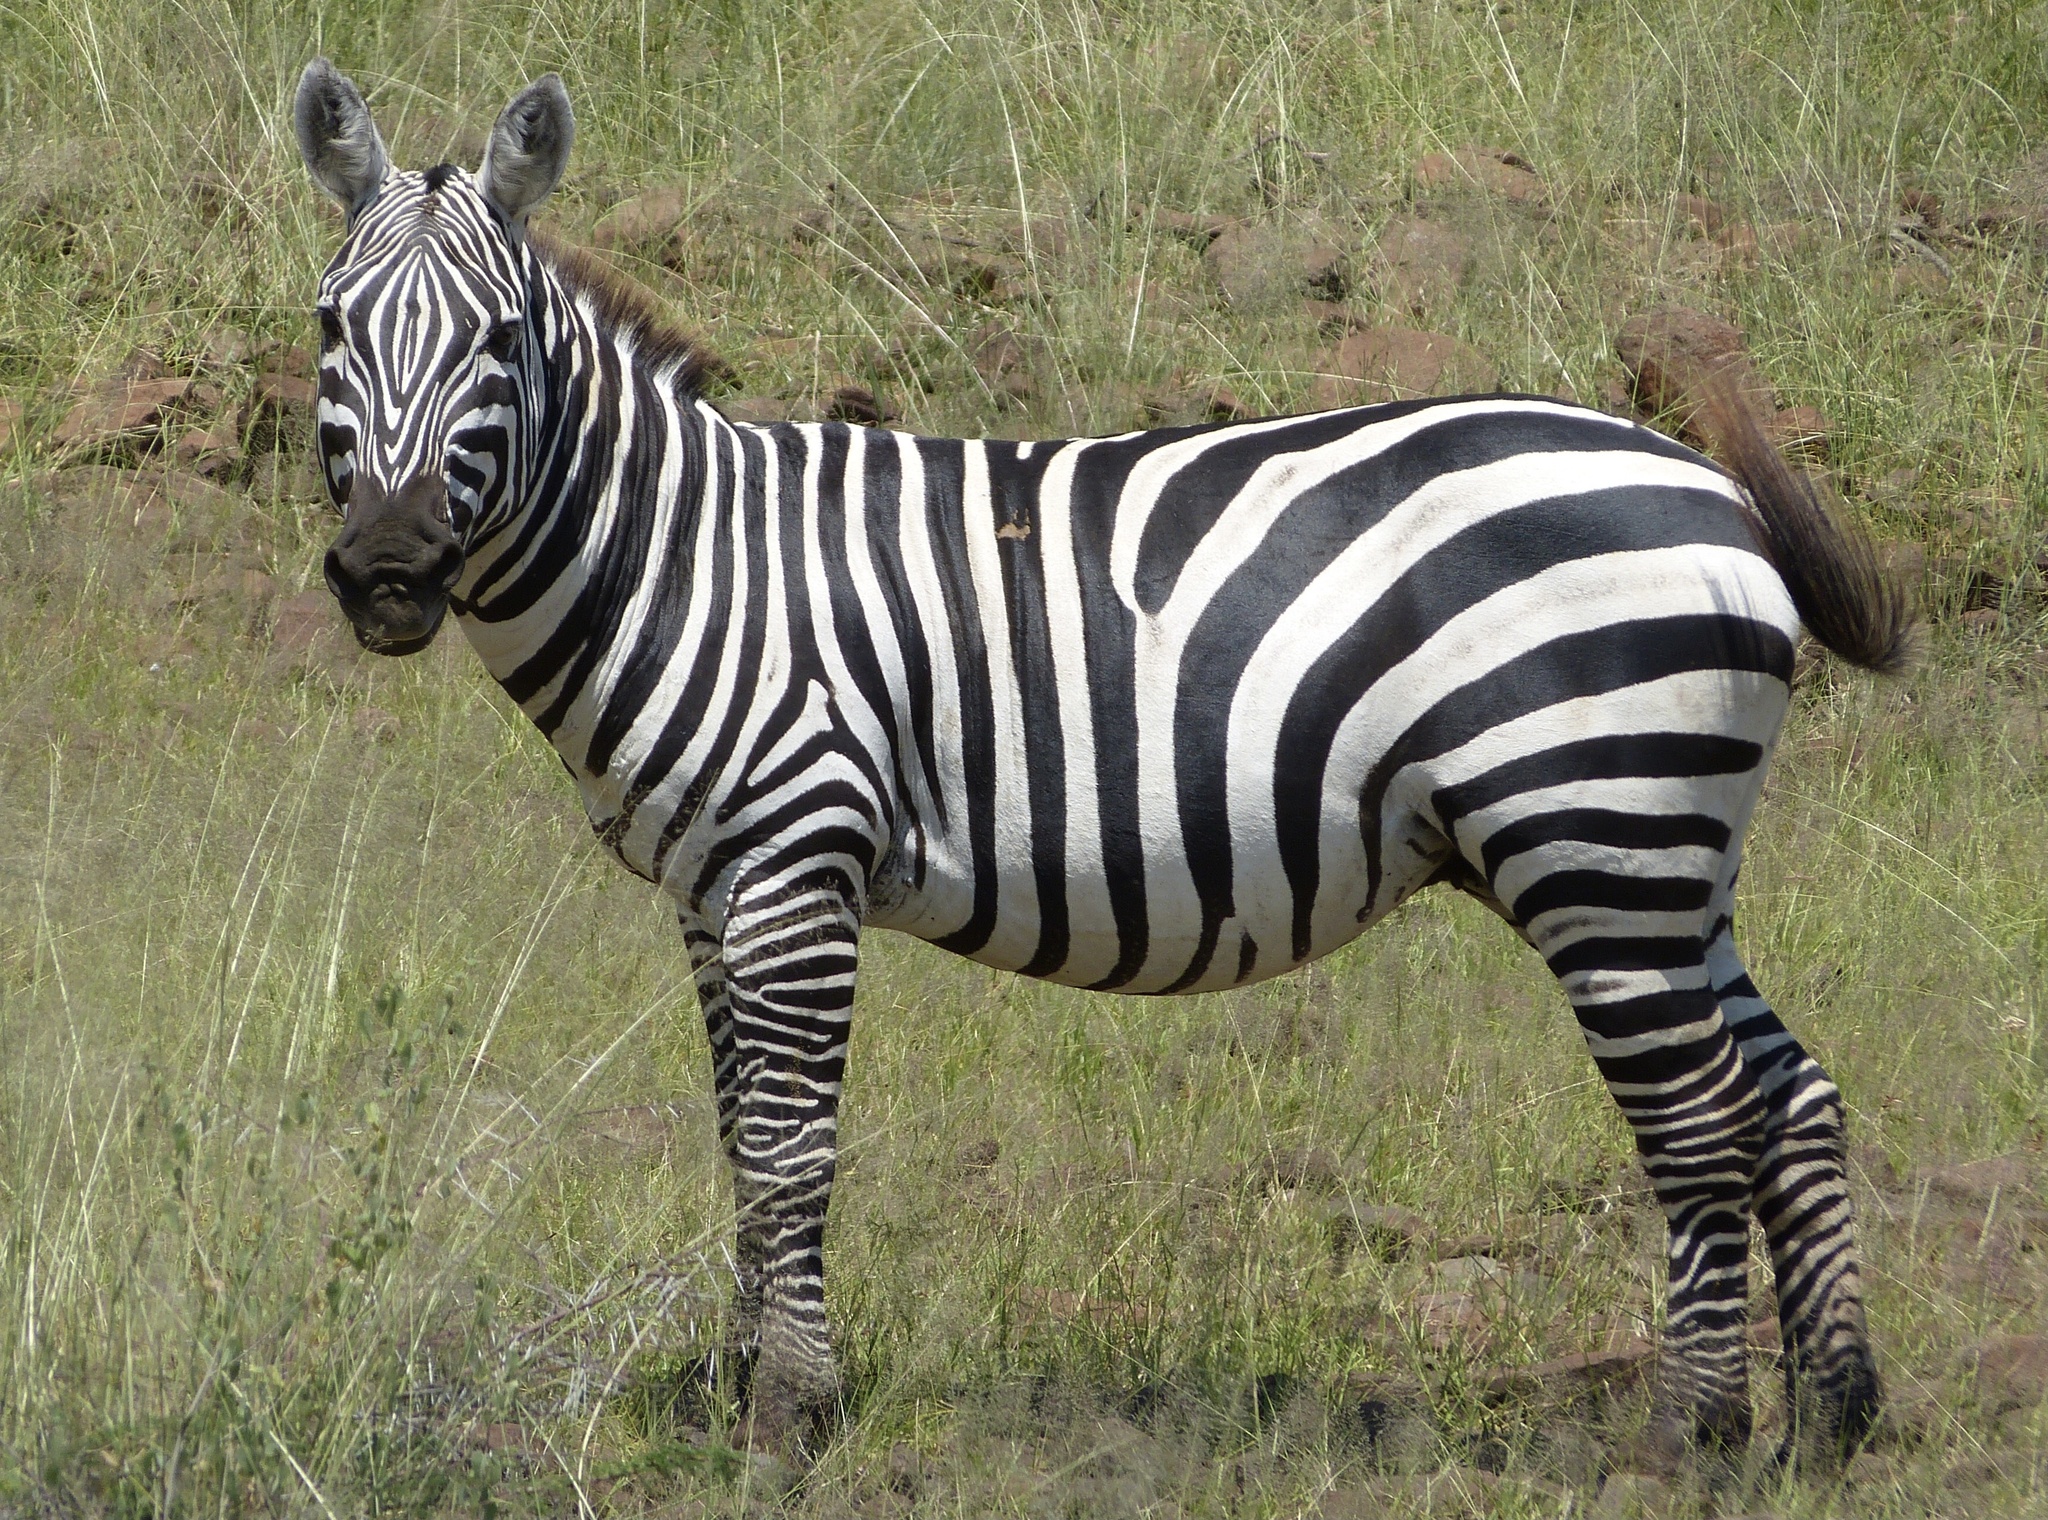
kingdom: Animalia
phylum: Chordata
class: Mammalia
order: Perissodactyla
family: Equidae
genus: Equus
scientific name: Equus quagga
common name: Plains zebra
